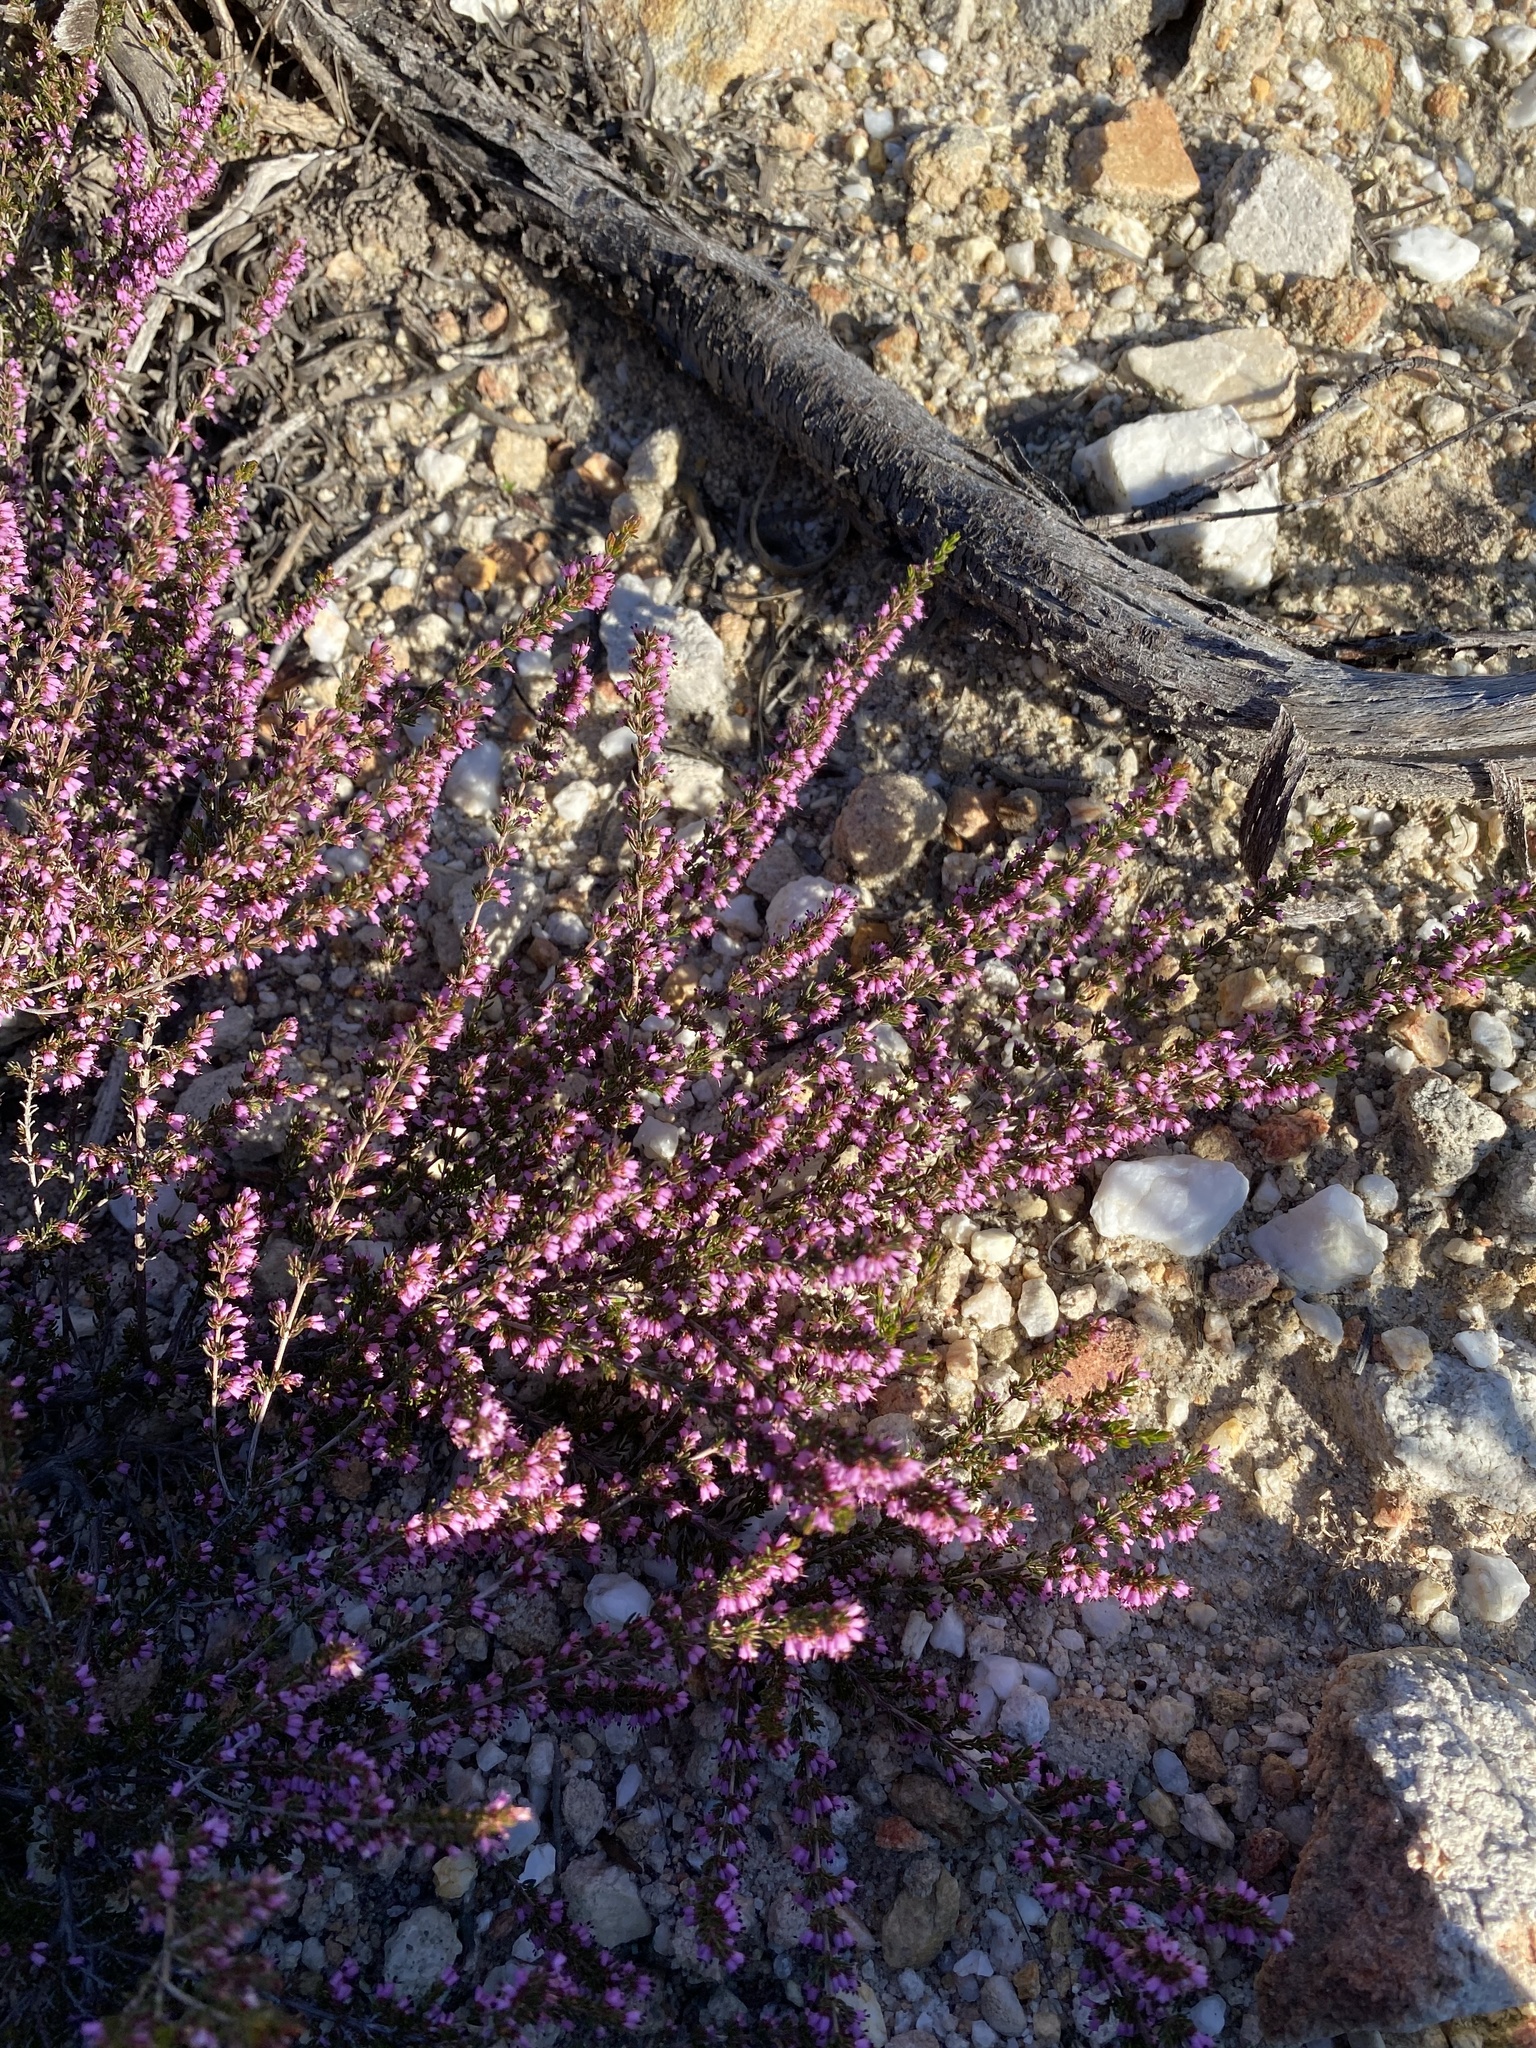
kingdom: Plantae
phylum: Tracheophyta
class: Magnoliopsida
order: Ericales
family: Ericaceae
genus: Erica
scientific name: Erica anguliger
